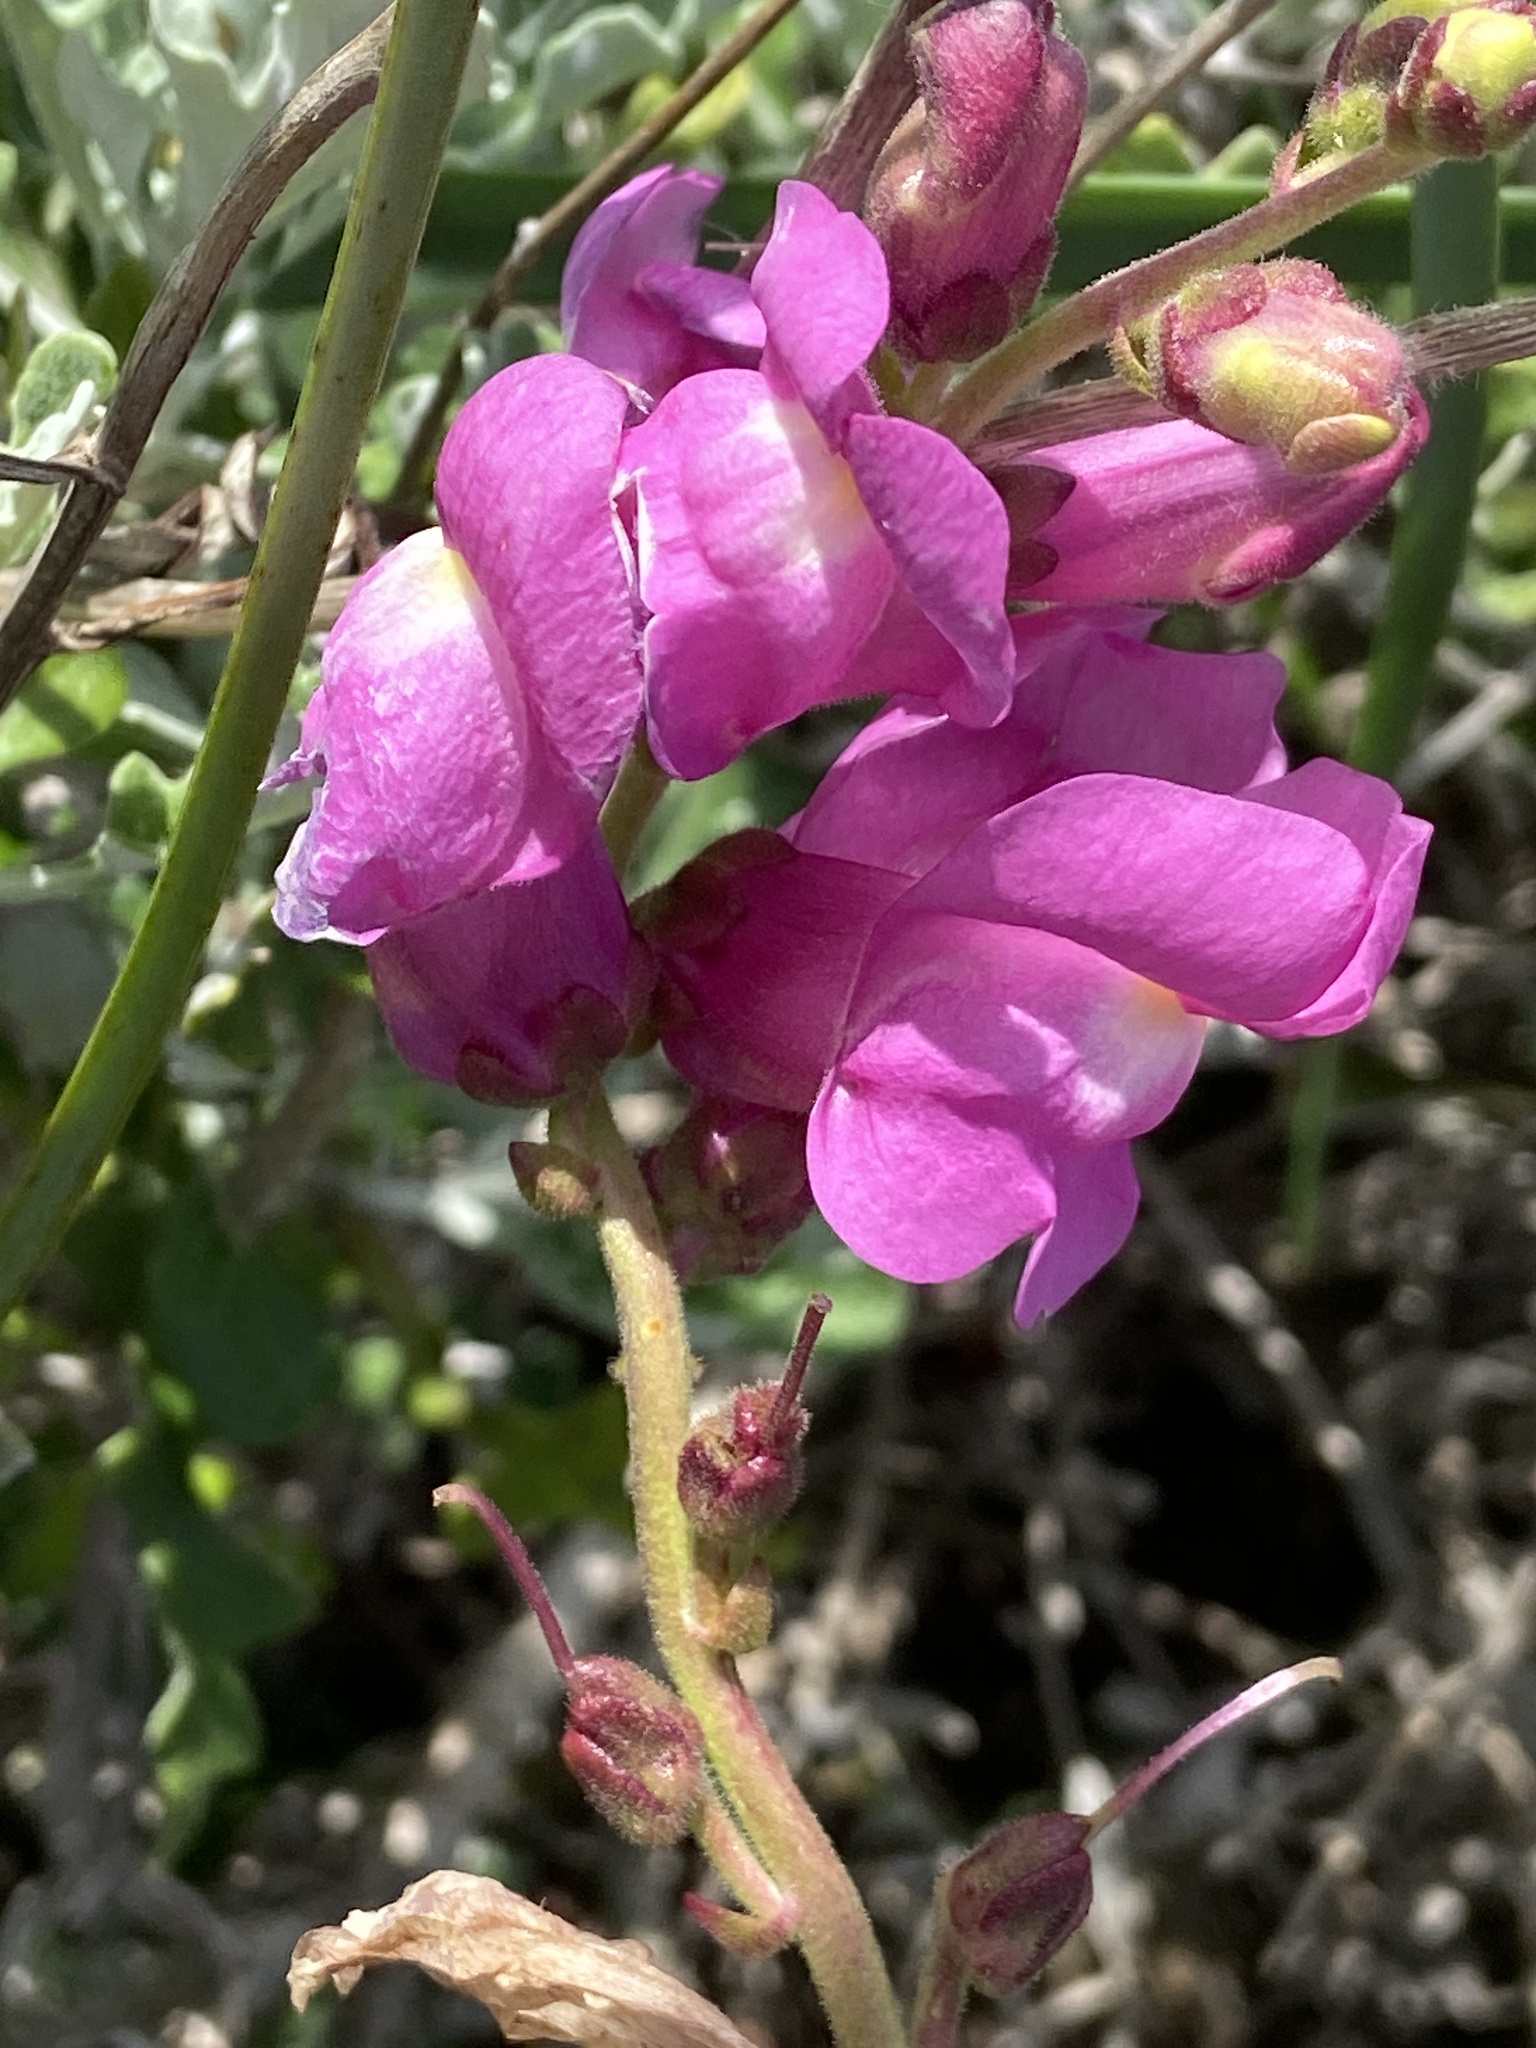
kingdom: Plantae
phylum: Tracheophyta
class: Magnoliopsida
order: Lamiales
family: Plantaginaceae
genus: Antirrhinum
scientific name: Antirrhinum tortuosum
